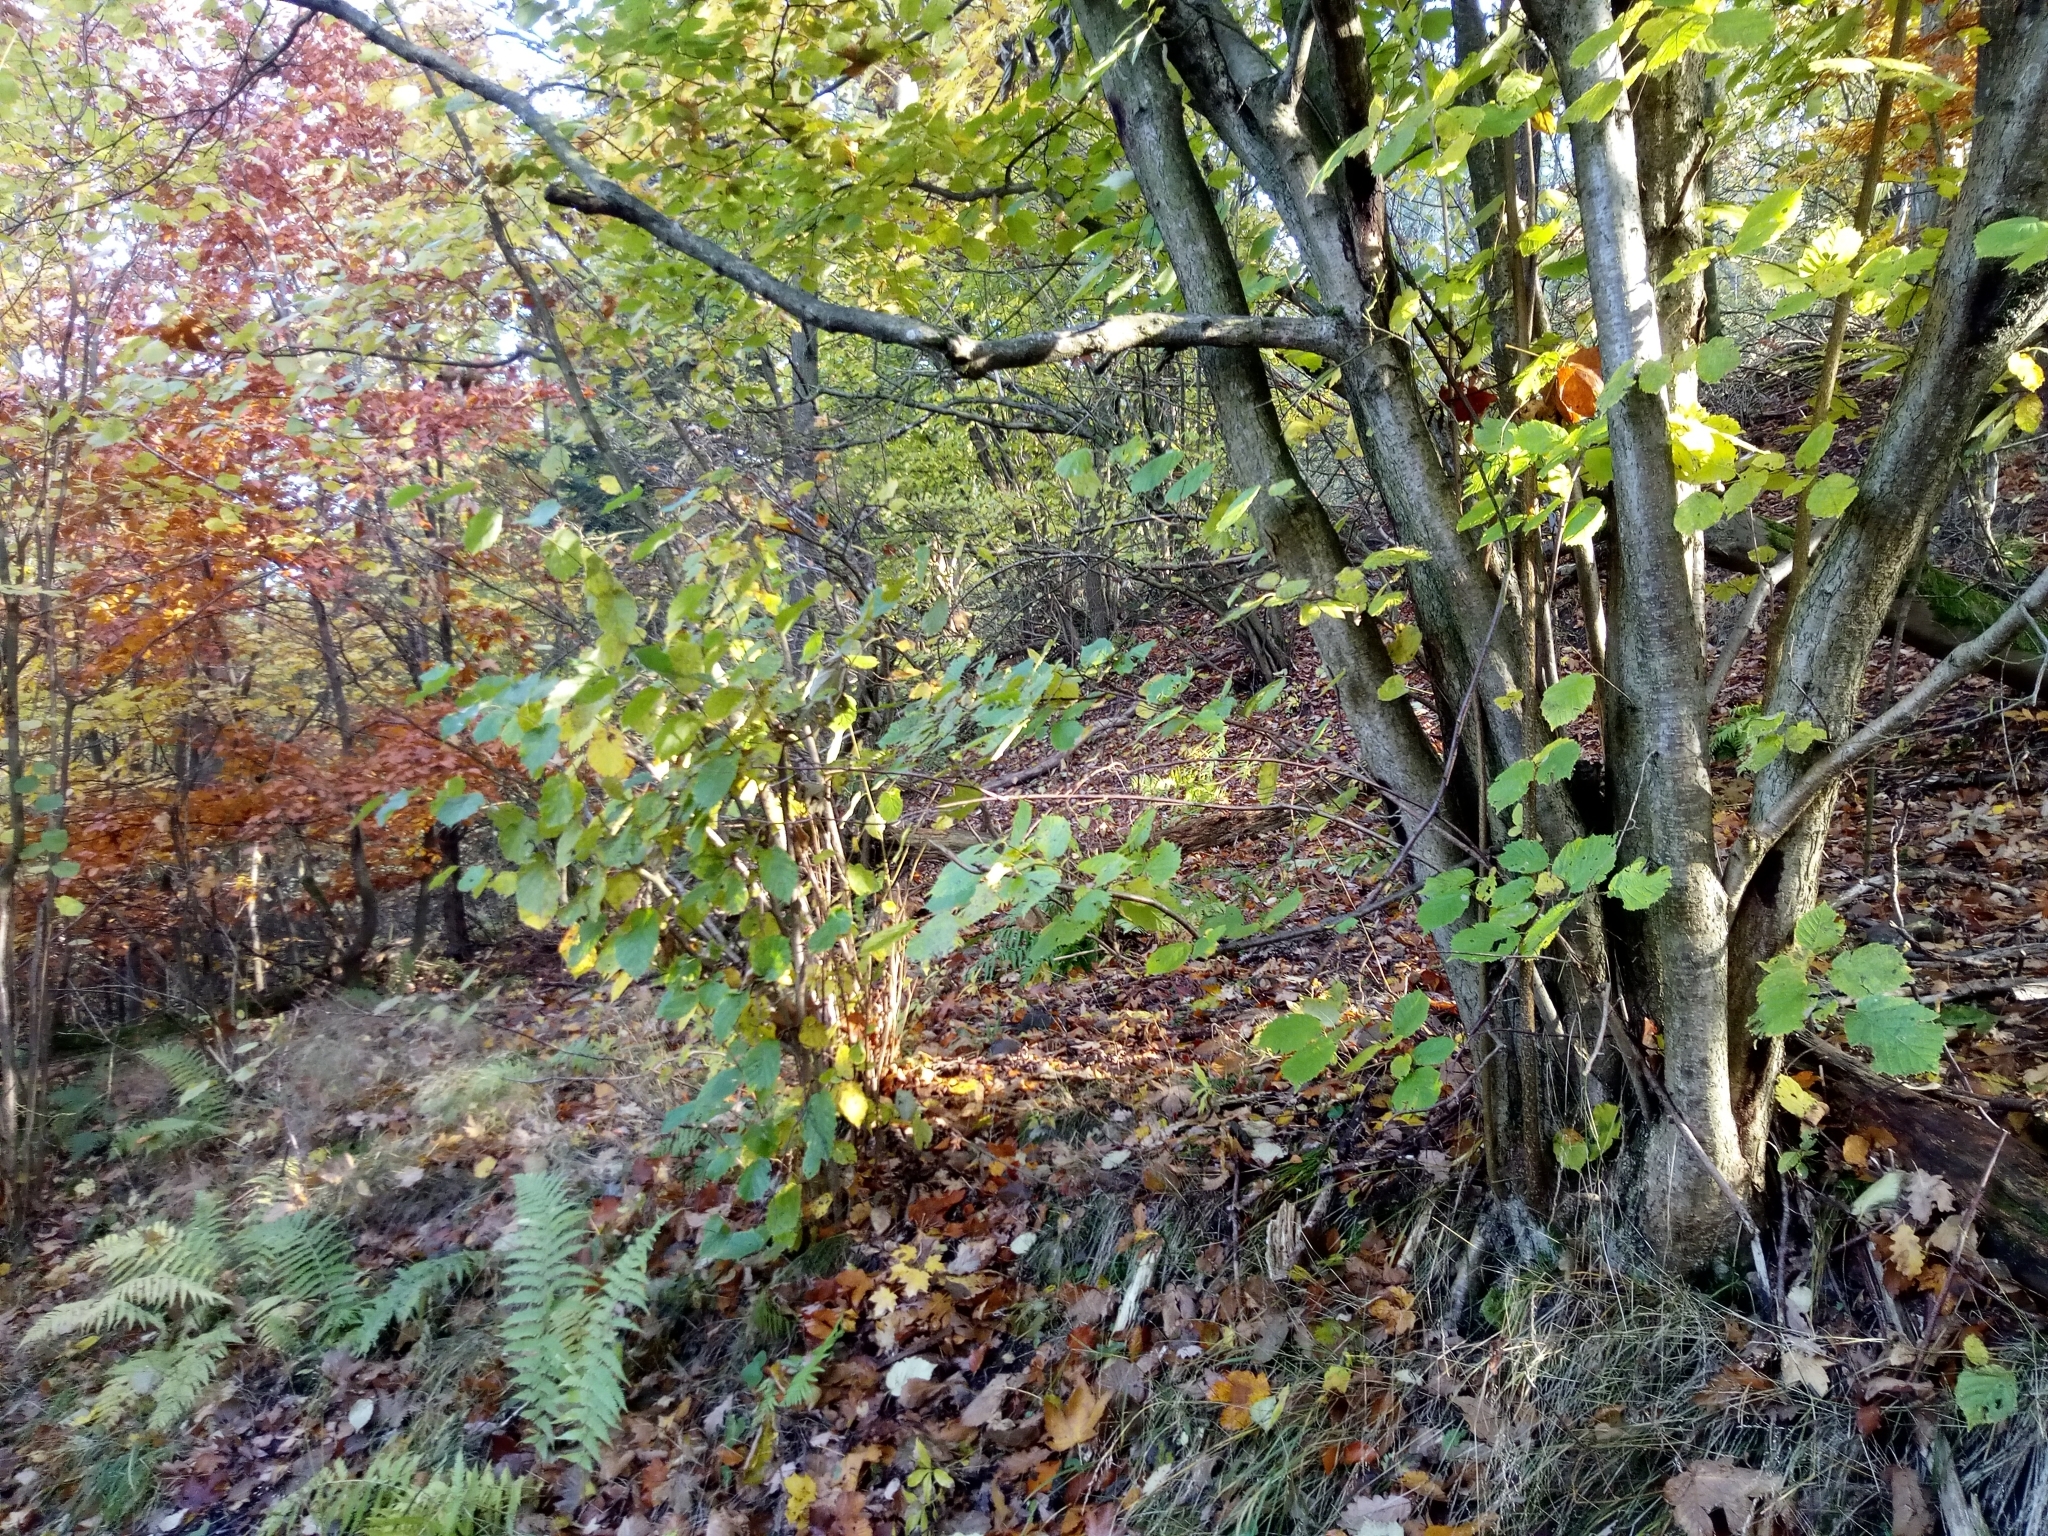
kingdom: Plantae
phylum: Tracheophyta
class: Magnoliopsida
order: Fagales
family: Betulaceae
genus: Corylus
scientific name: Corylus avellana
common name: European hazel
